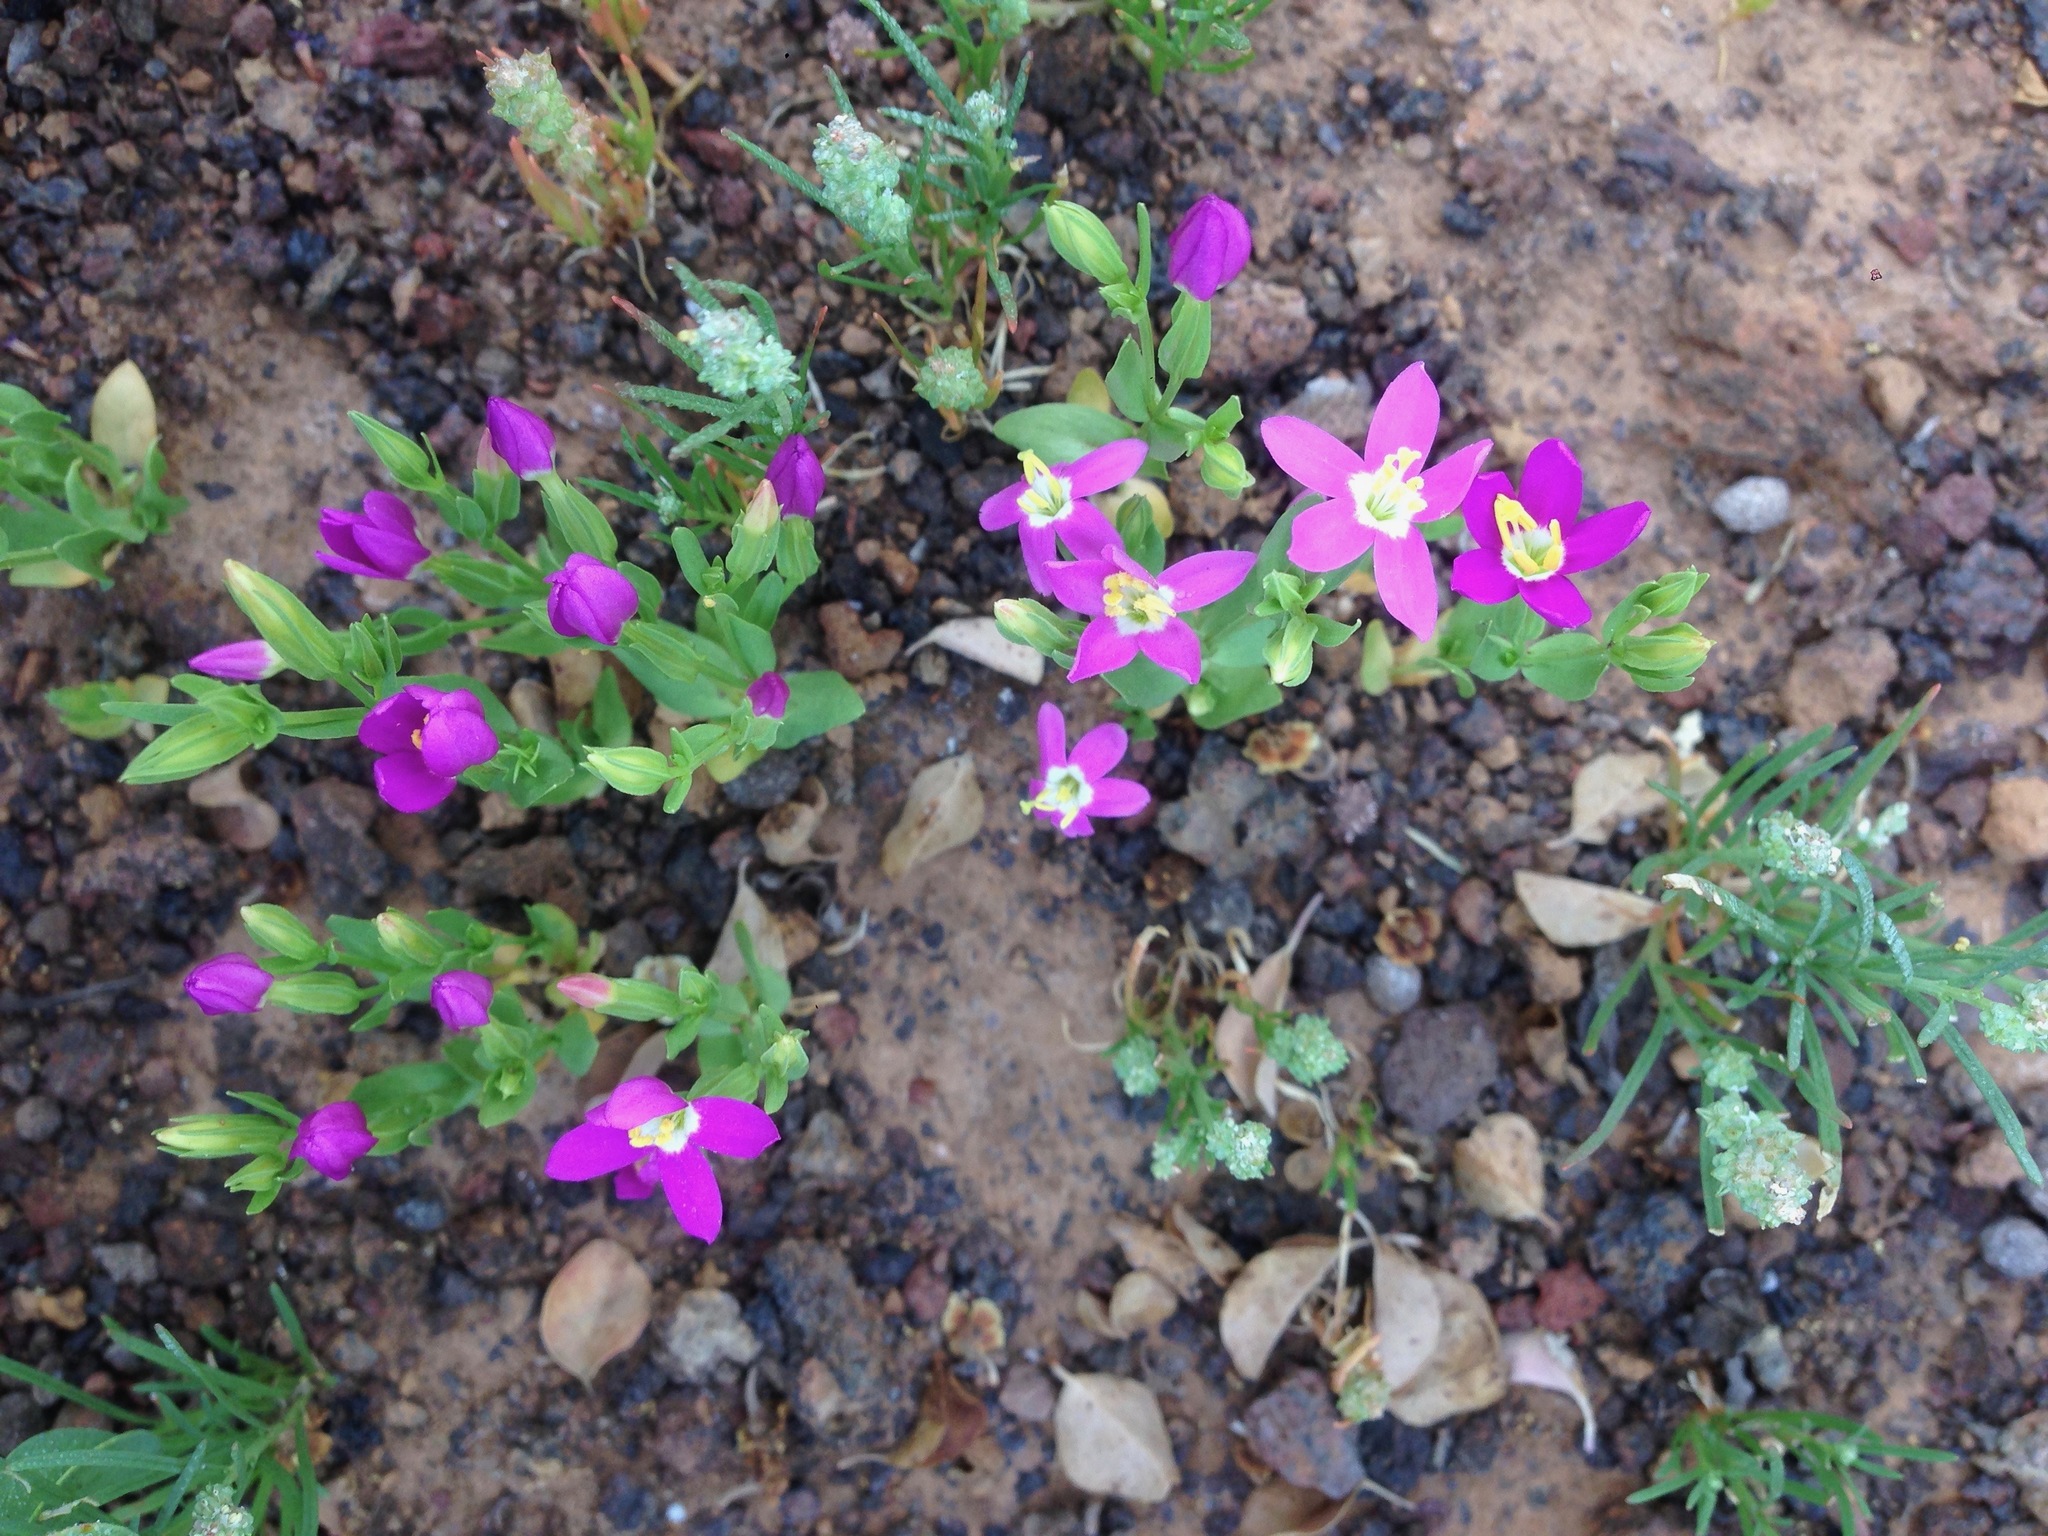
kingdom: Plantae
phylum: Tracheophyta
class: Magnoliopsida
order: Gentianales
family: Gentianaceae
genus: Zeltnera
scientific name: Zeltnera venusta
